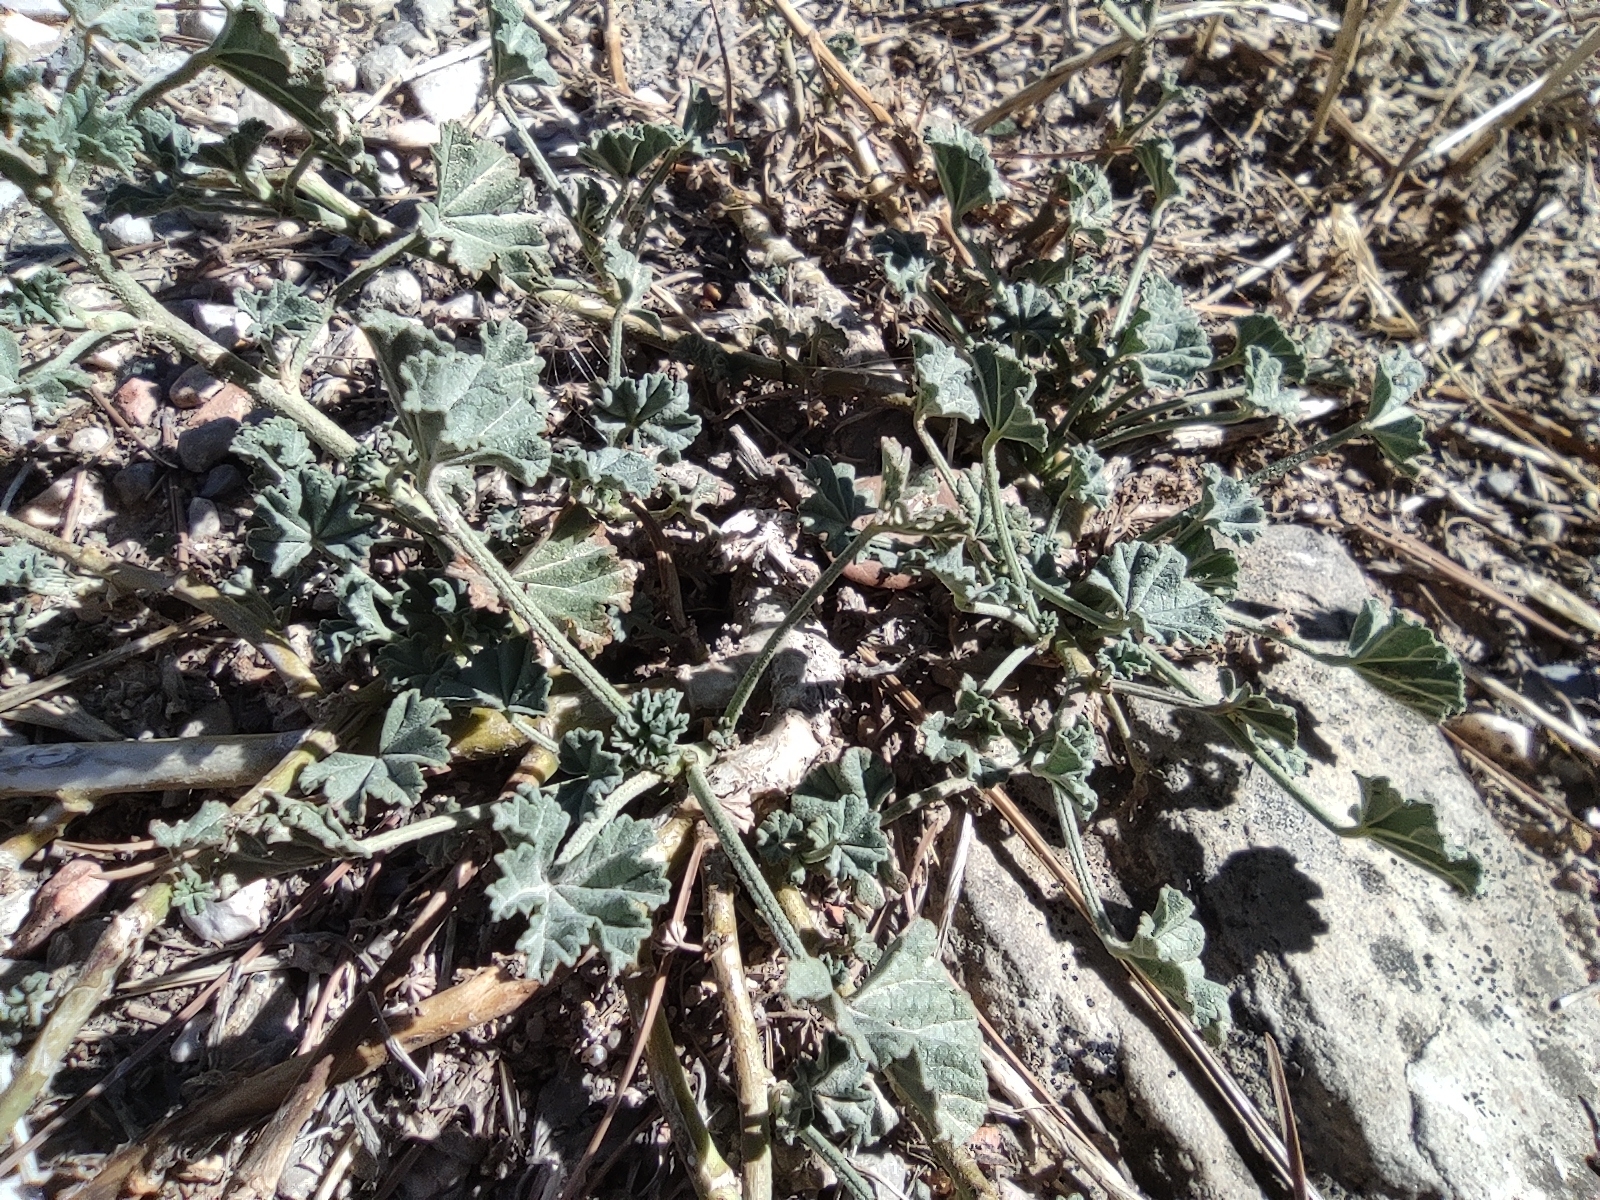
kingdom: Plantae
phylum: Tracheophyta
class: Magnoliopsida
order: Malvales
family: Malvaceae
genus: Malva
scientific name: Malva sylvestris
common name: Common mallow
